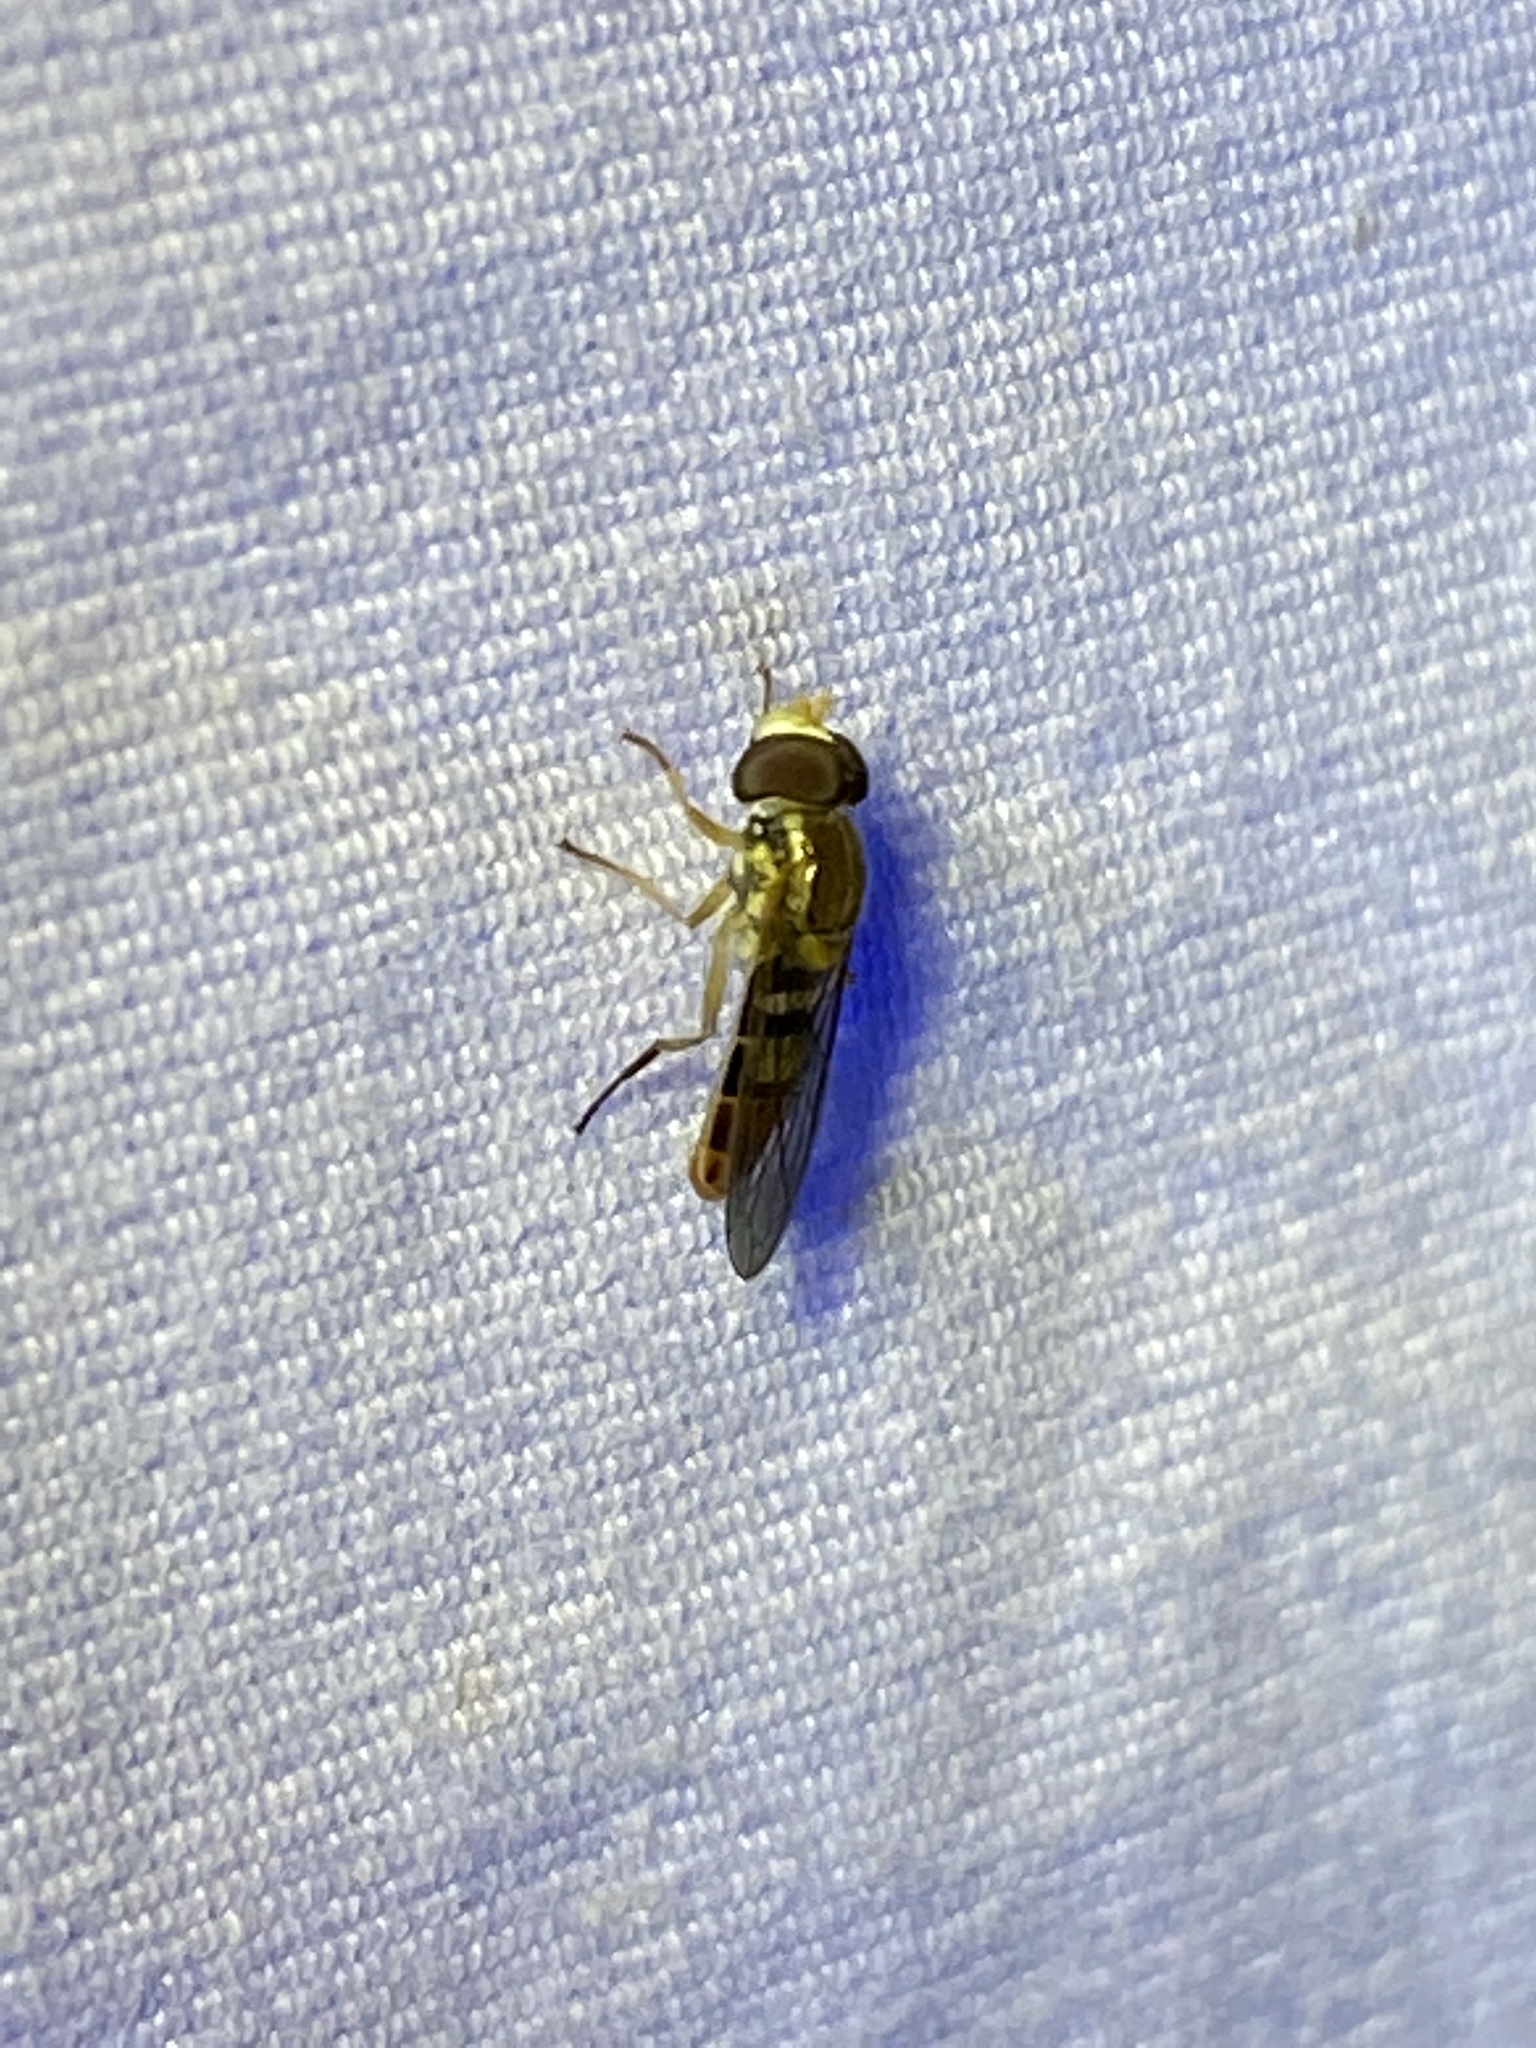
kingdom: Animalia
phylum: Arthropoda
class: Insecta
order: Diptera
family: Syrphidae
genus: Toxomerus
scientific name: Toxomerus marginatus
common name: Syrphid fly
